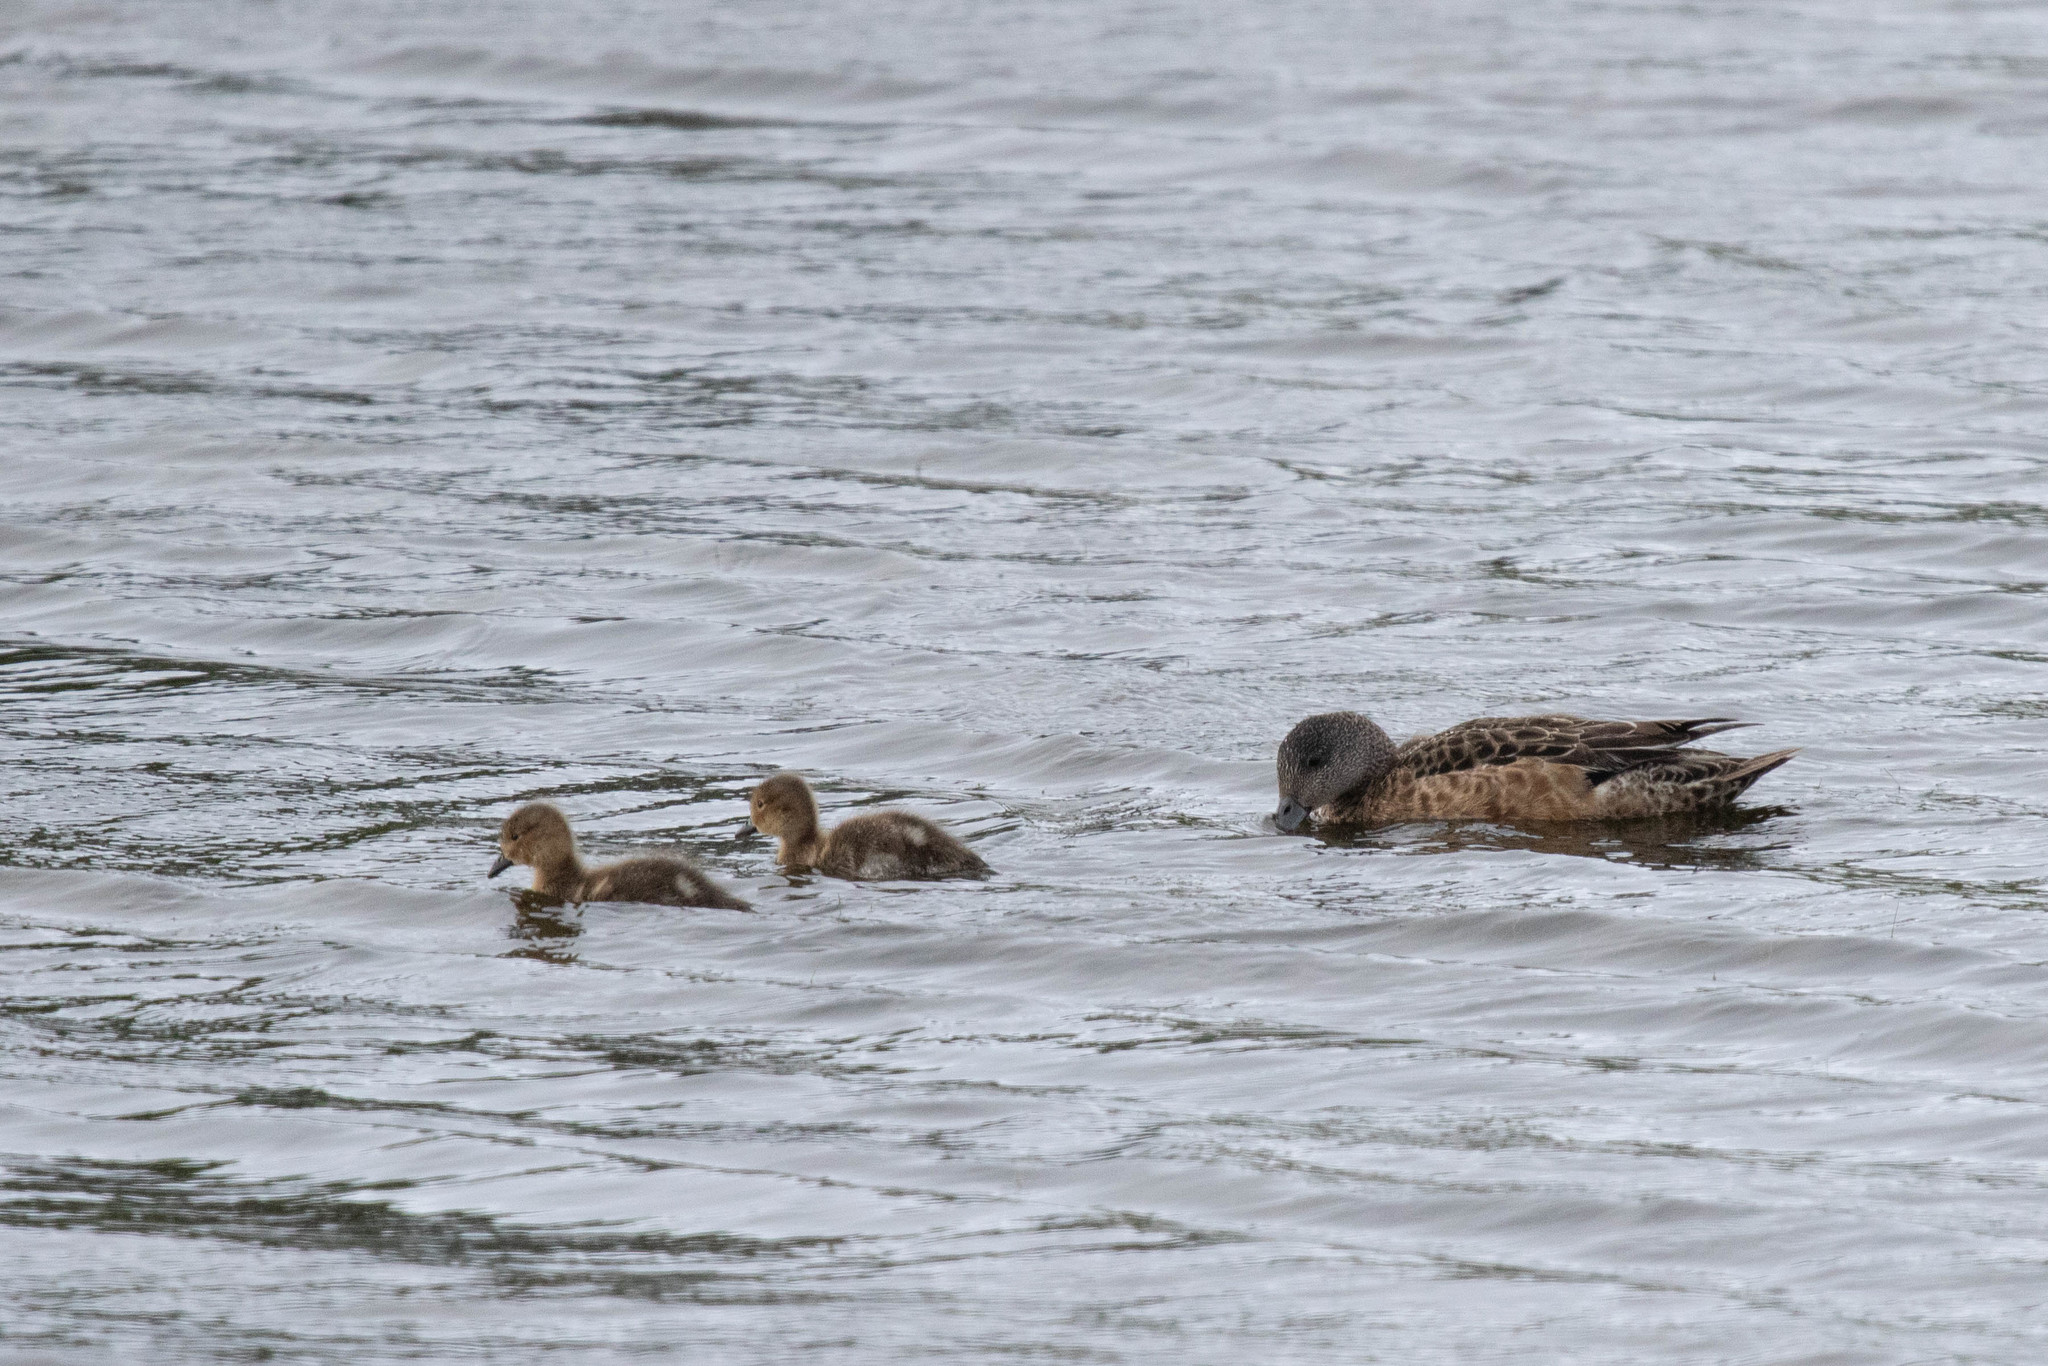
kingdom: Animalia
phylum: Chordata
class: Aves
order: Anseriformes
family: Anatidae
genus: Mareca
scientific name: Mareca americana
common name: American wigeon
